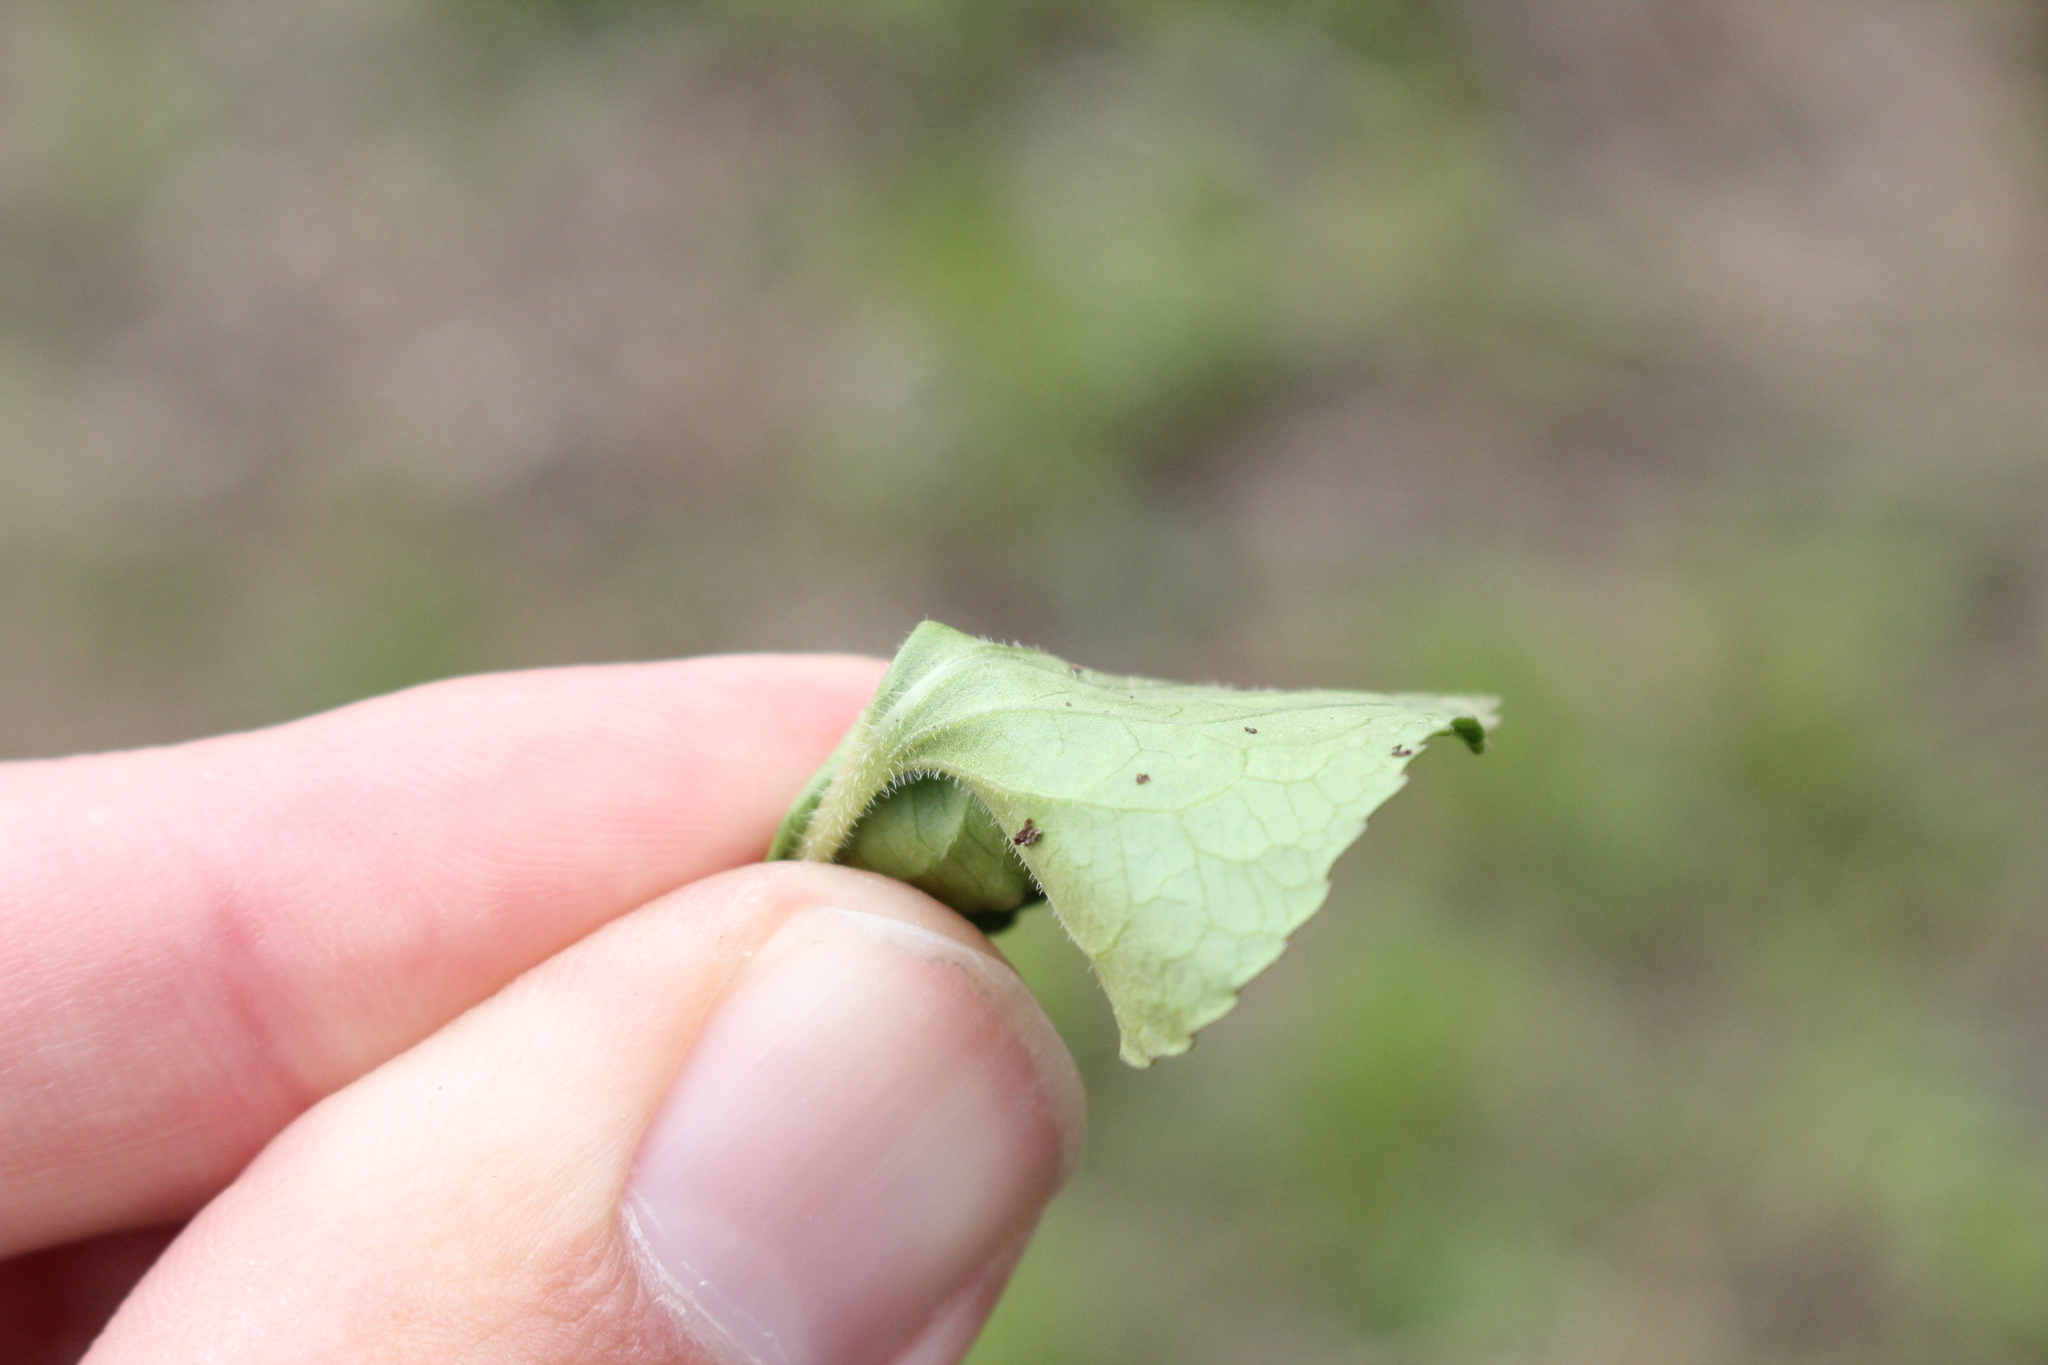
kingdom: Plantae
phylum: Tracheophyta
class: Magnoliopsida
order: Malpighiales
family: Violaceae
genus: Viola
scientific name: Viola sororia
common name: Dooryard violet
